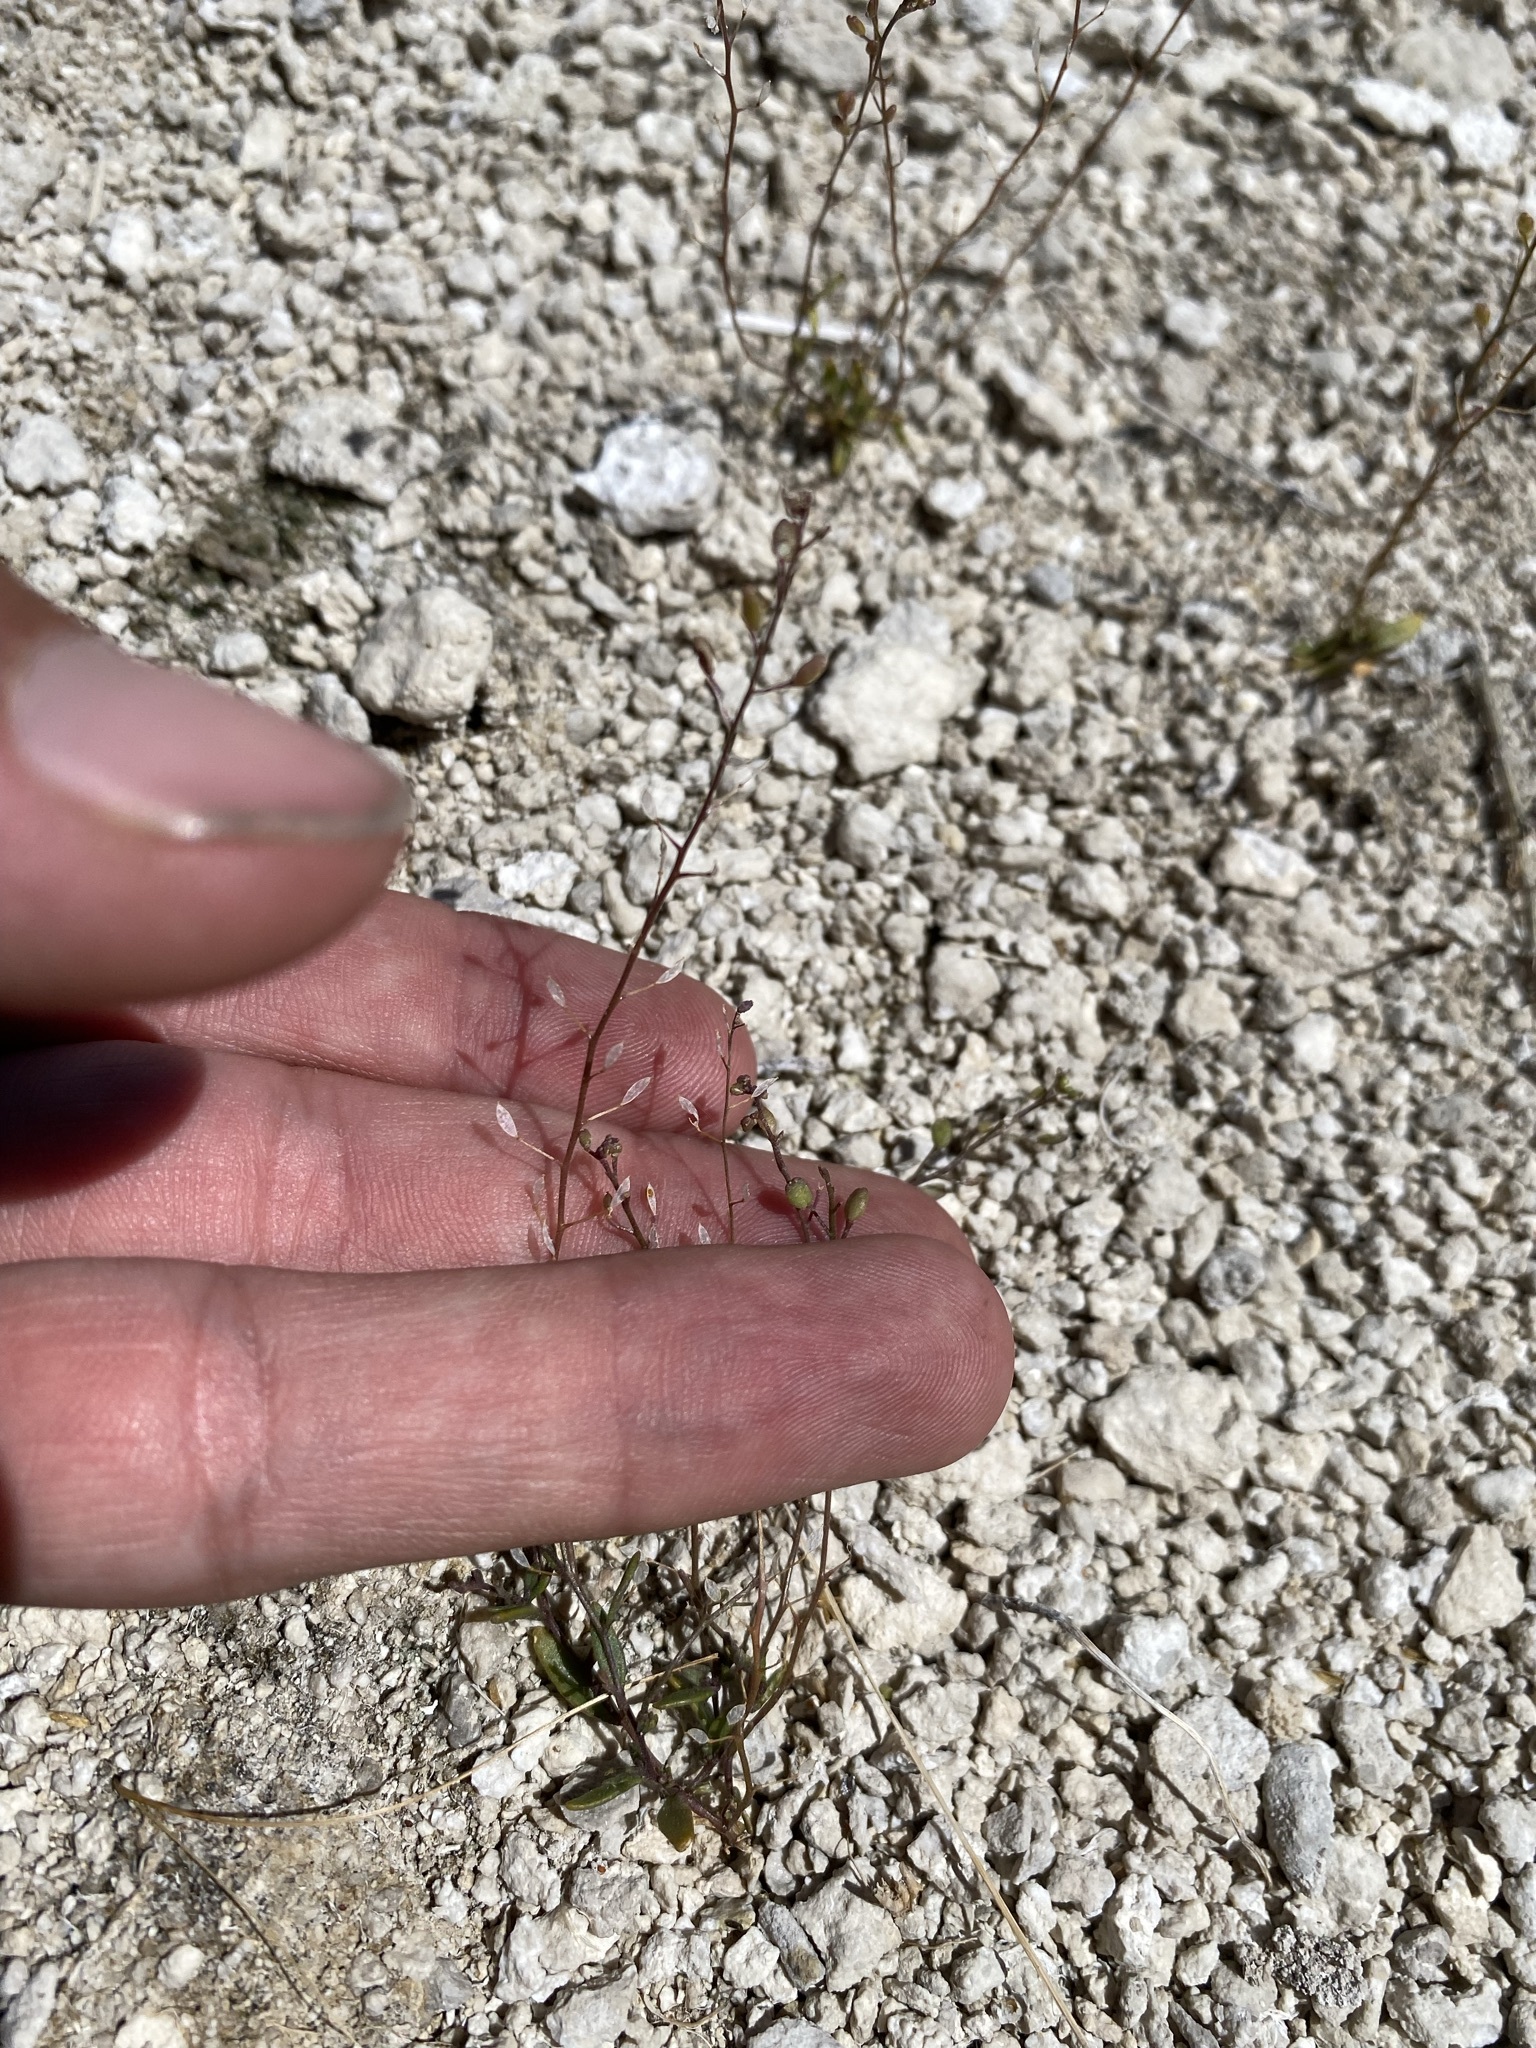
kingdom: Plantae
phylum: Tracheophyta
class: Magnoliopsida
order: Brassicales
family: Brassicaceae
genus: Hornungia
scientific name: Hornungia procumbens
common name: Oval purse
